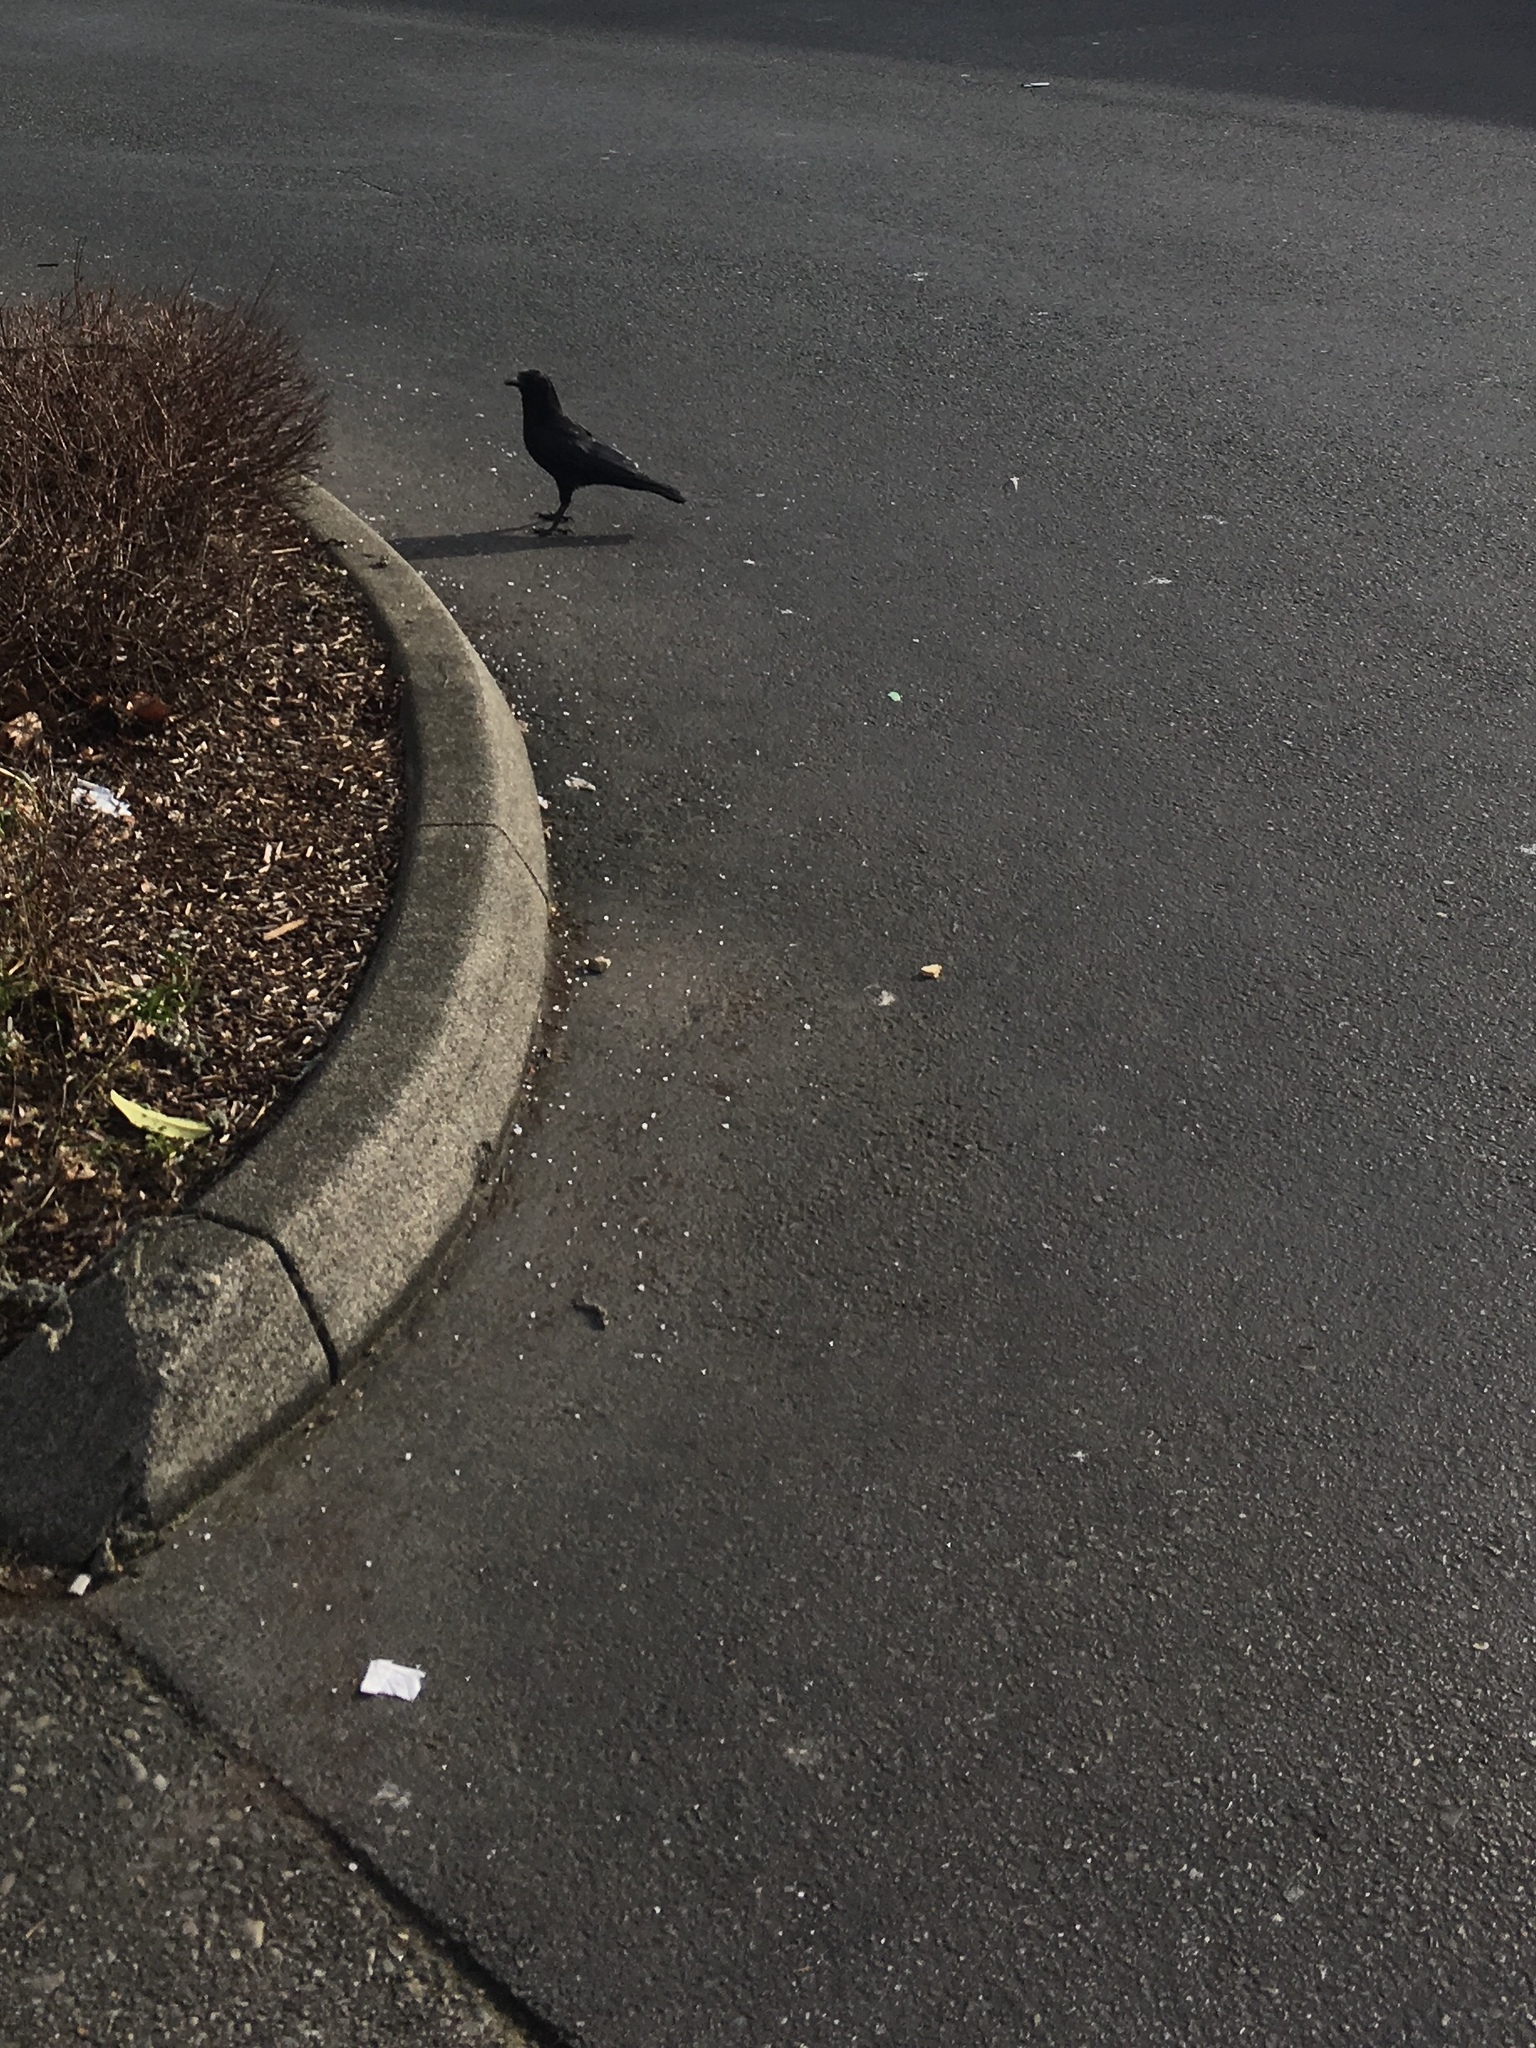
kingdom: Animalia
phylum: Chordata
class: Aves
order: Passeriformes
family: Corvidae
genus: Corvus
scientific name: Corvus brachyrhynchos
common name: American crow
